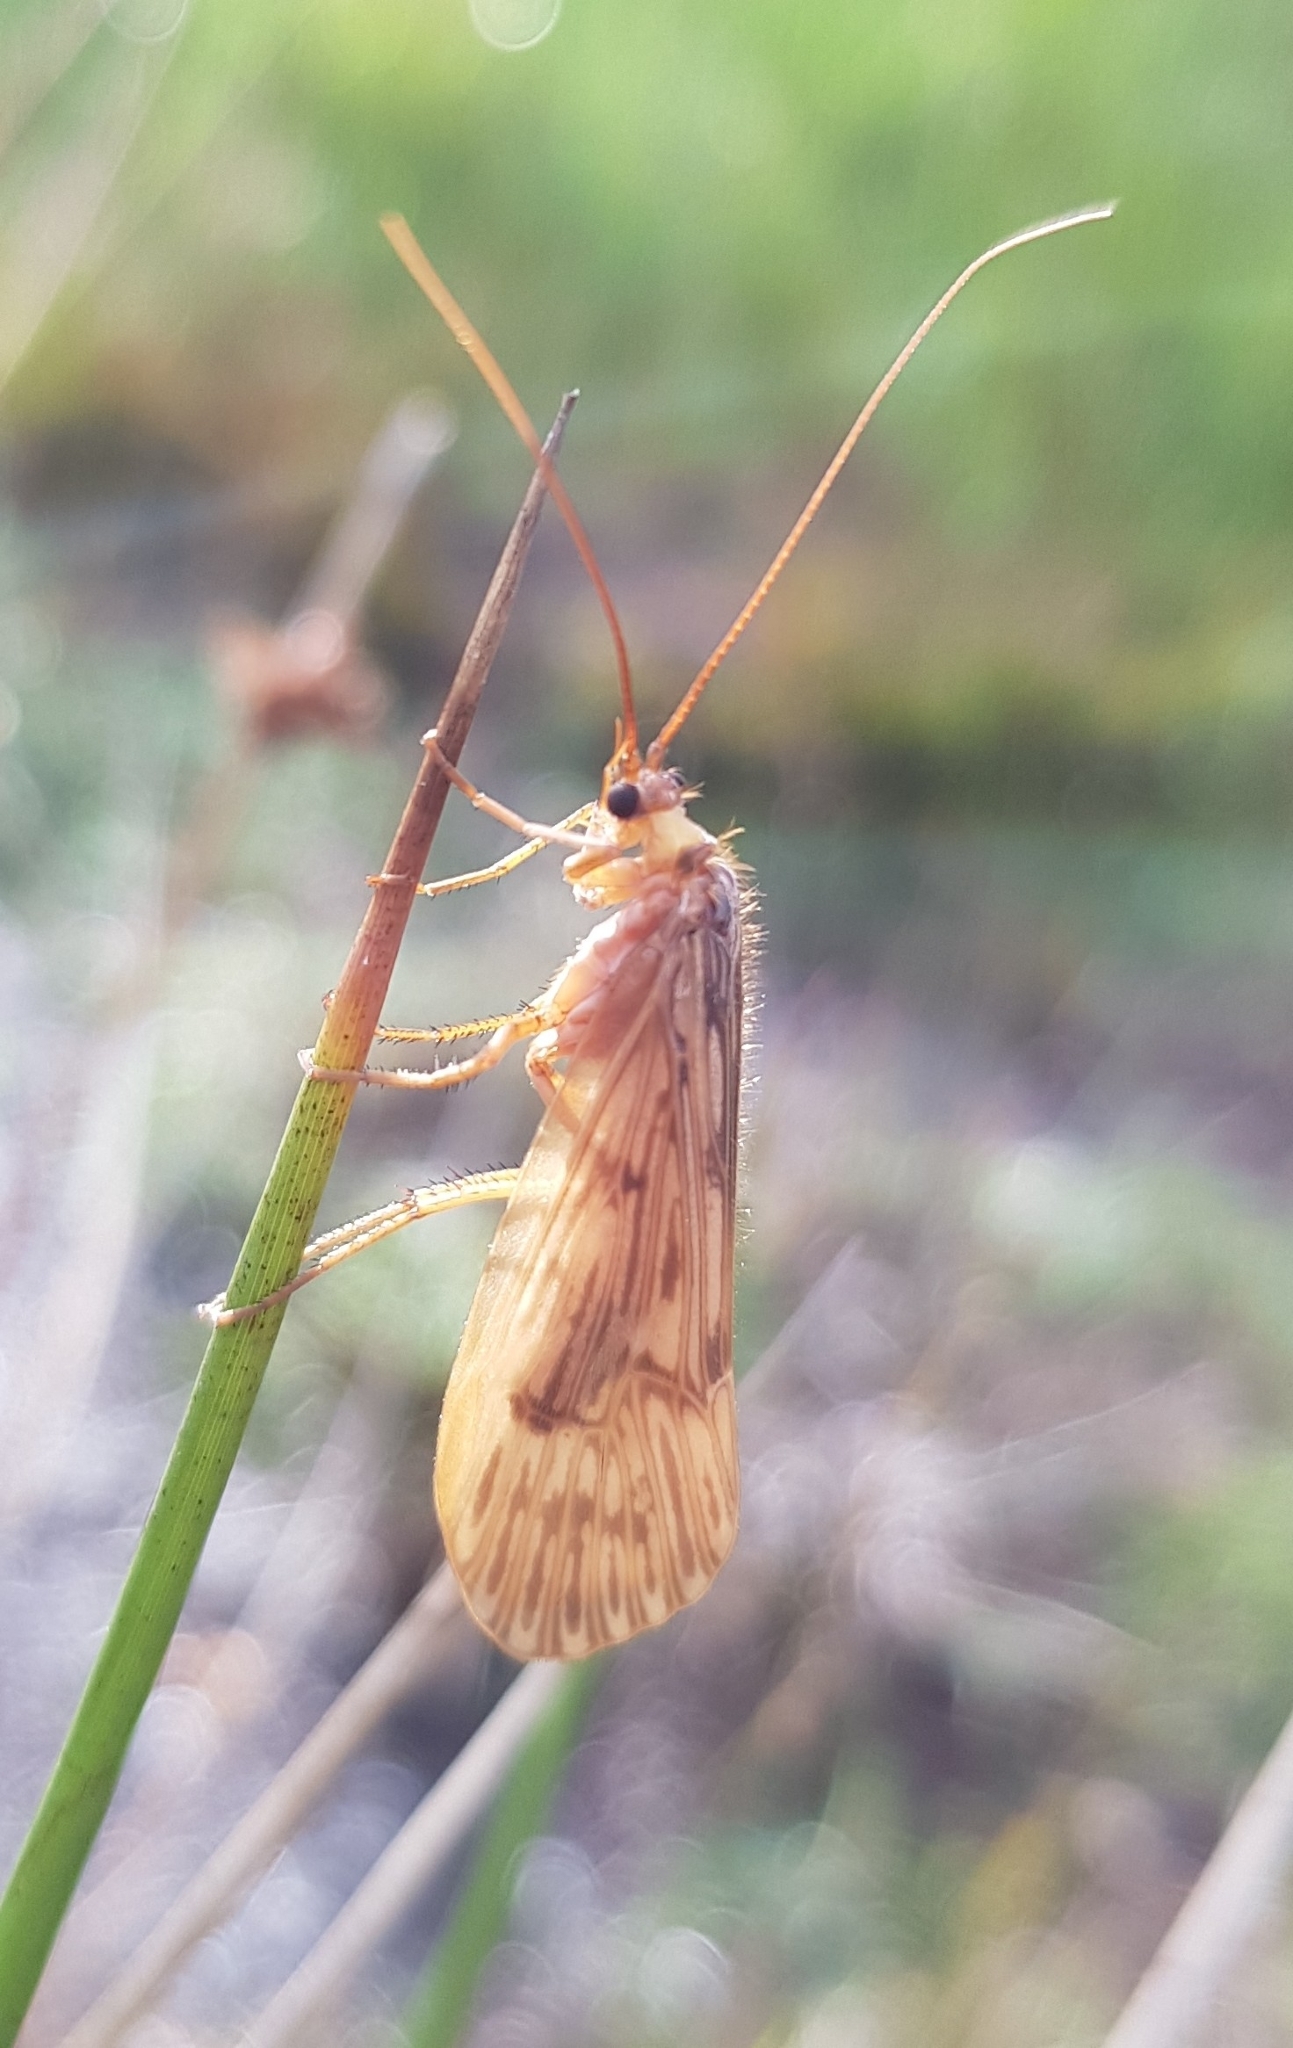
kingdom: Animalia
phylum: Arthropoda
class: Insecta
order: Trichoptera
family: Limnephilidae
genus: Halesus
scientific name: Halesus radiatus
